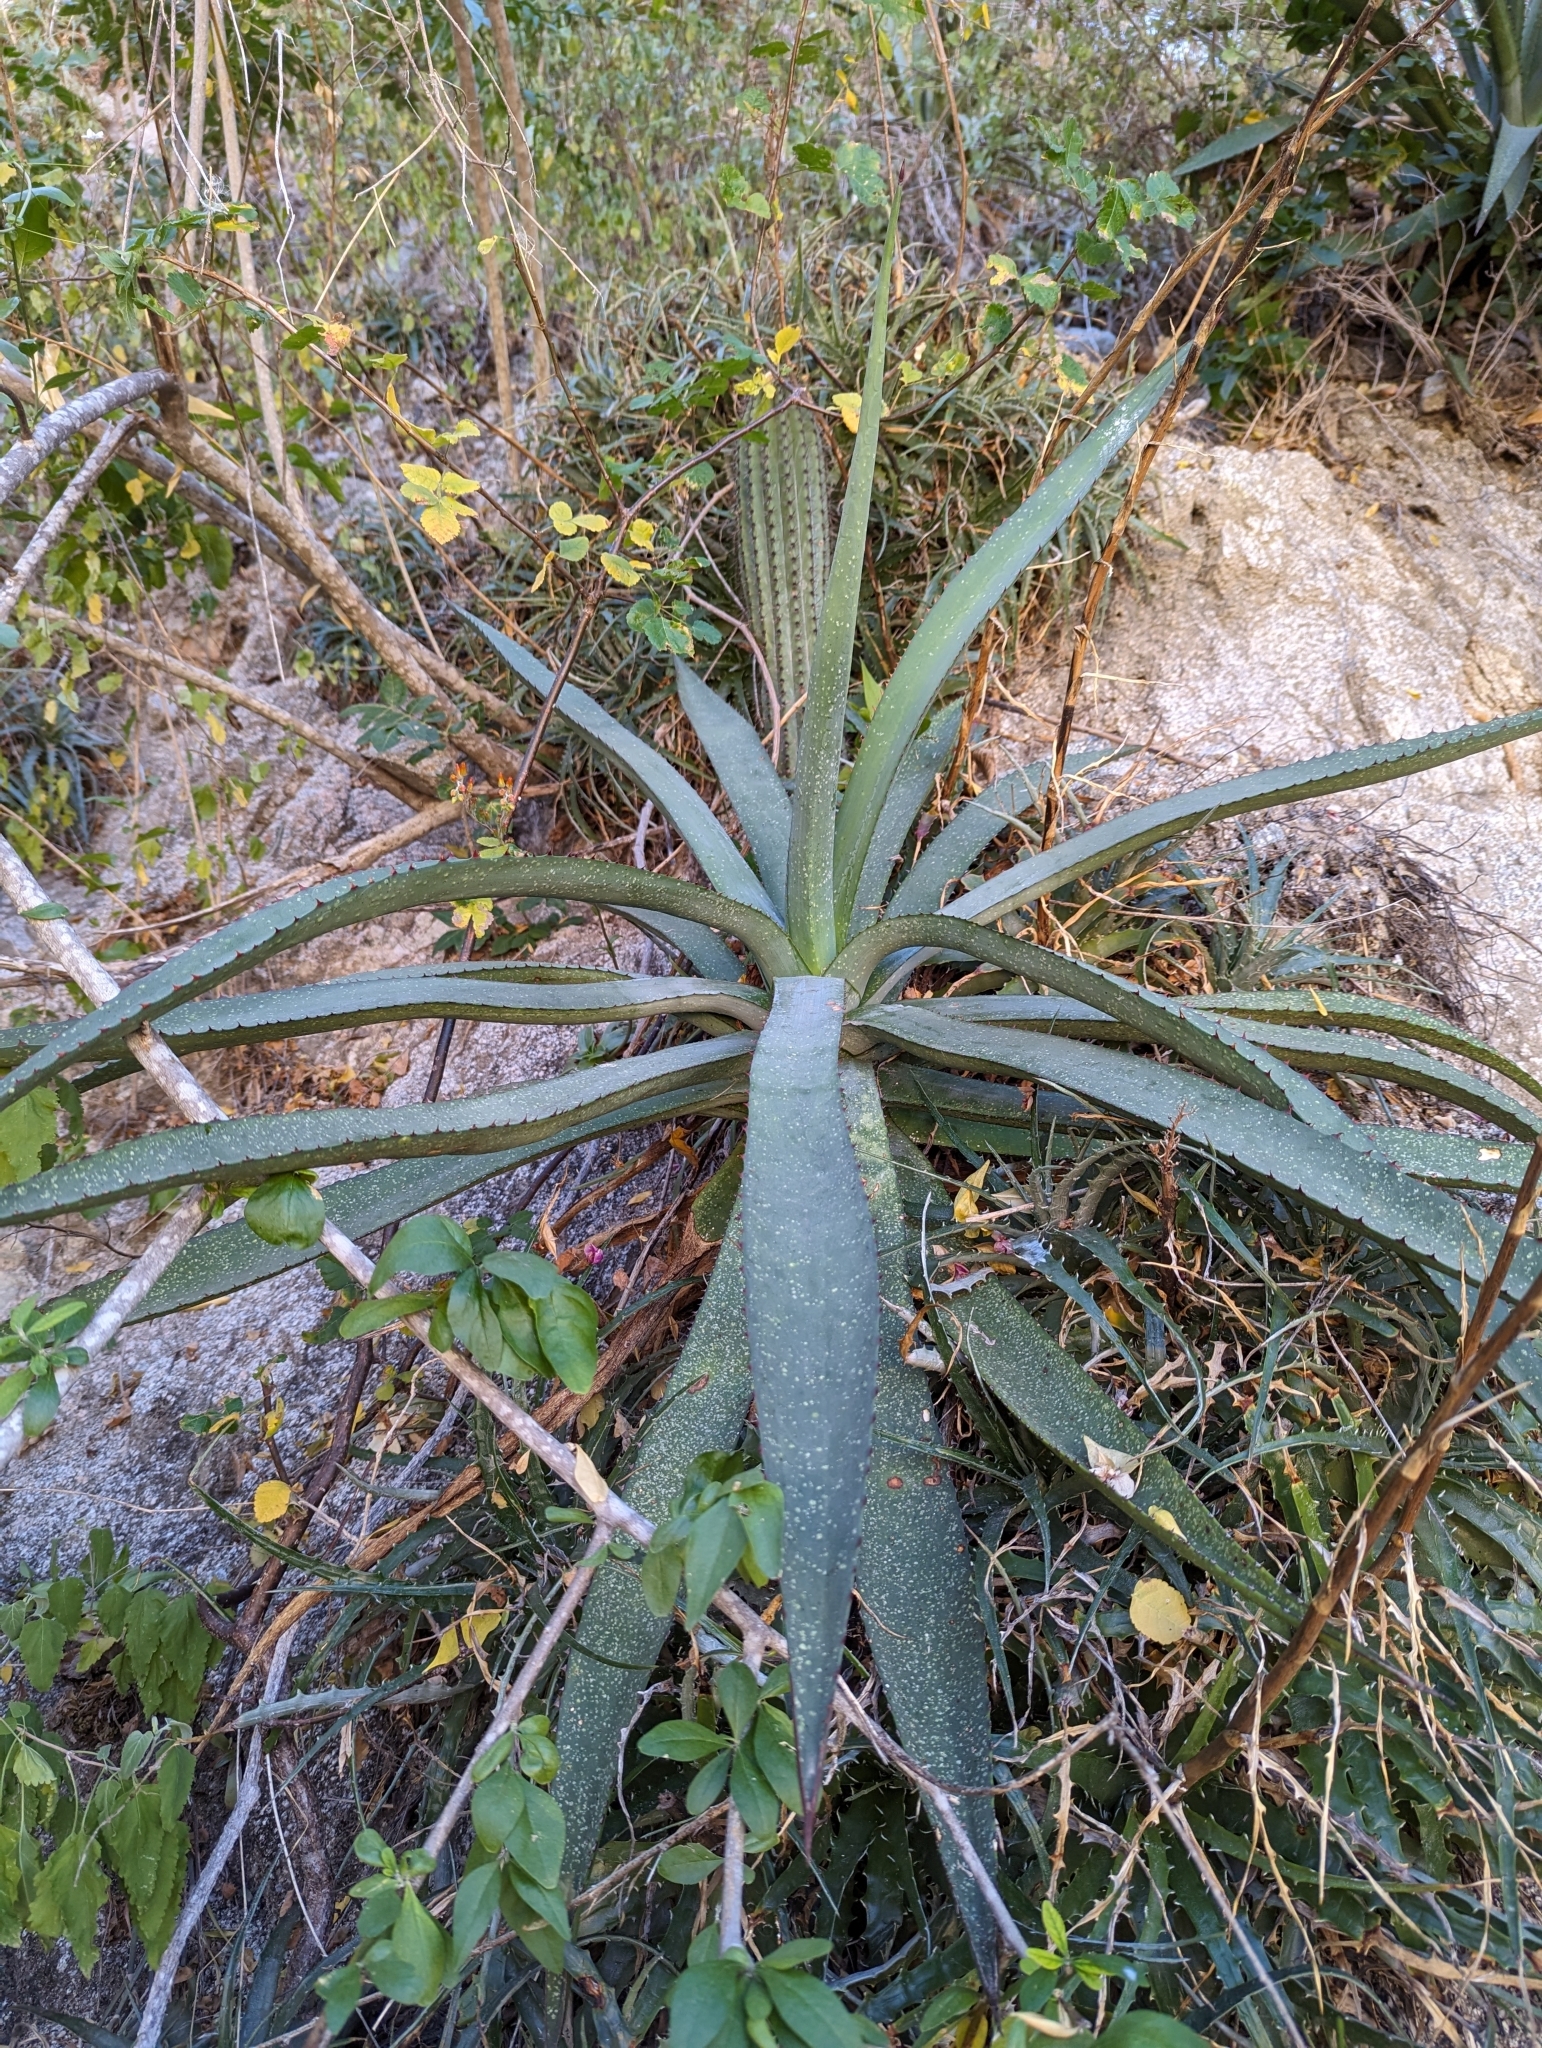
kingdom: Plantae
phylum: Tracheophyta
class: Liliopsida
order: Asparagales
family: Asparagaceae
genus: Agave
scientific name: Agave aurea
